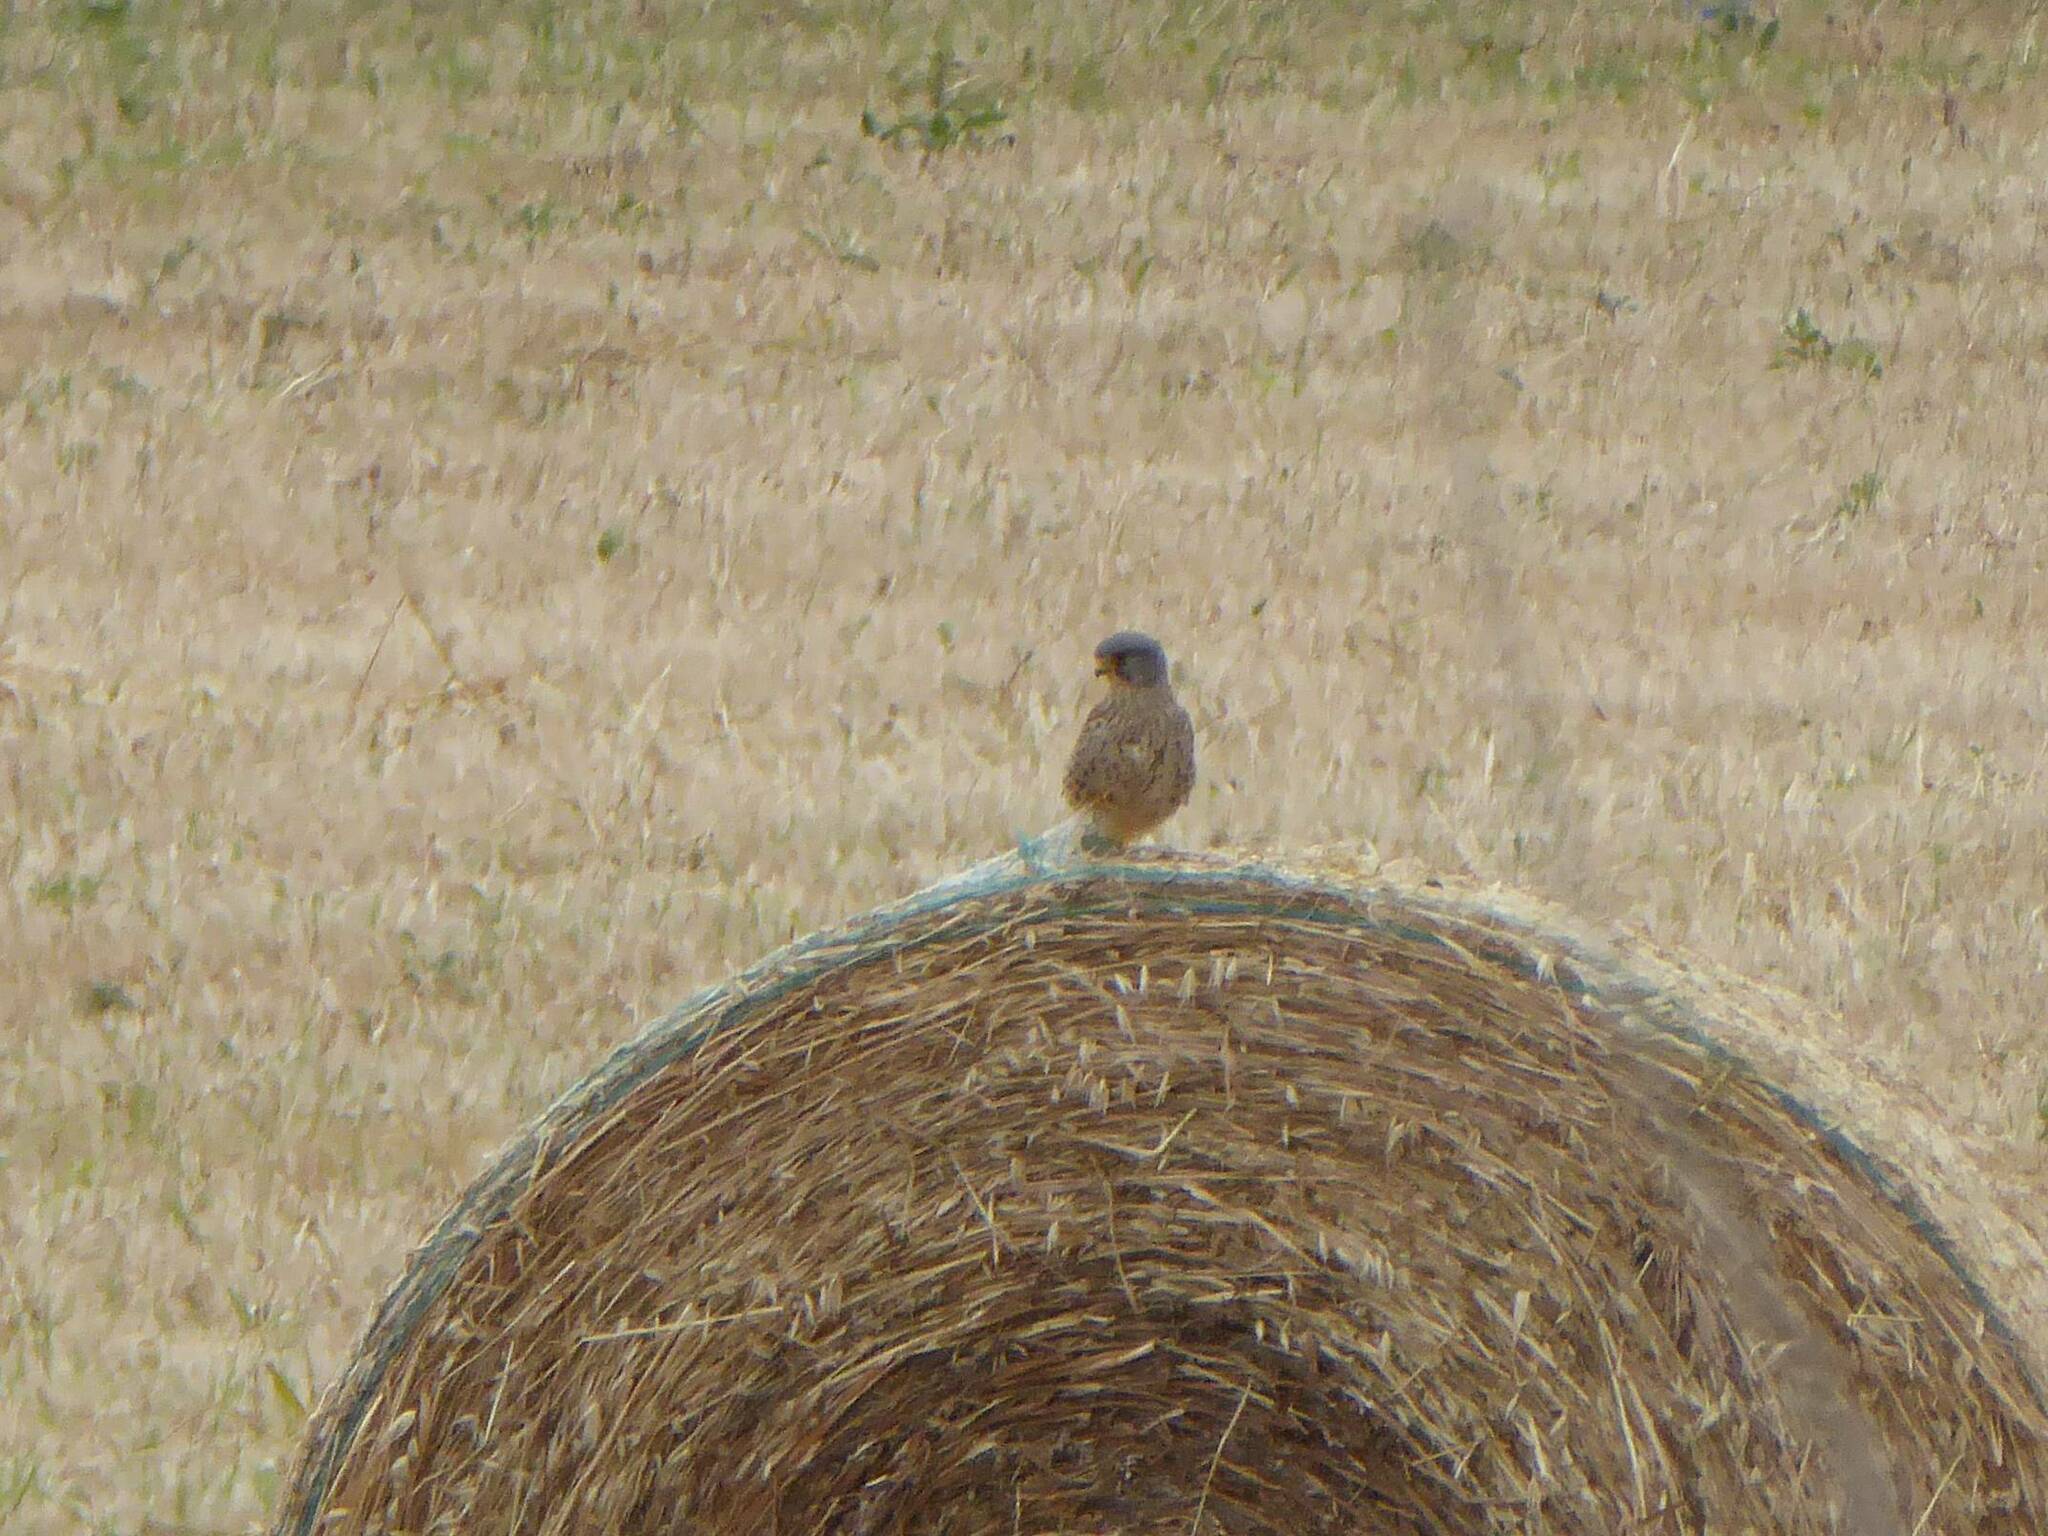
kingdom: Animalia
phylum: Chordata
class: Aves
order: Falconiformes
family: Falconidae
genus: Falco
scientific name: Falco tinnunculus
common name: Common kestrel
